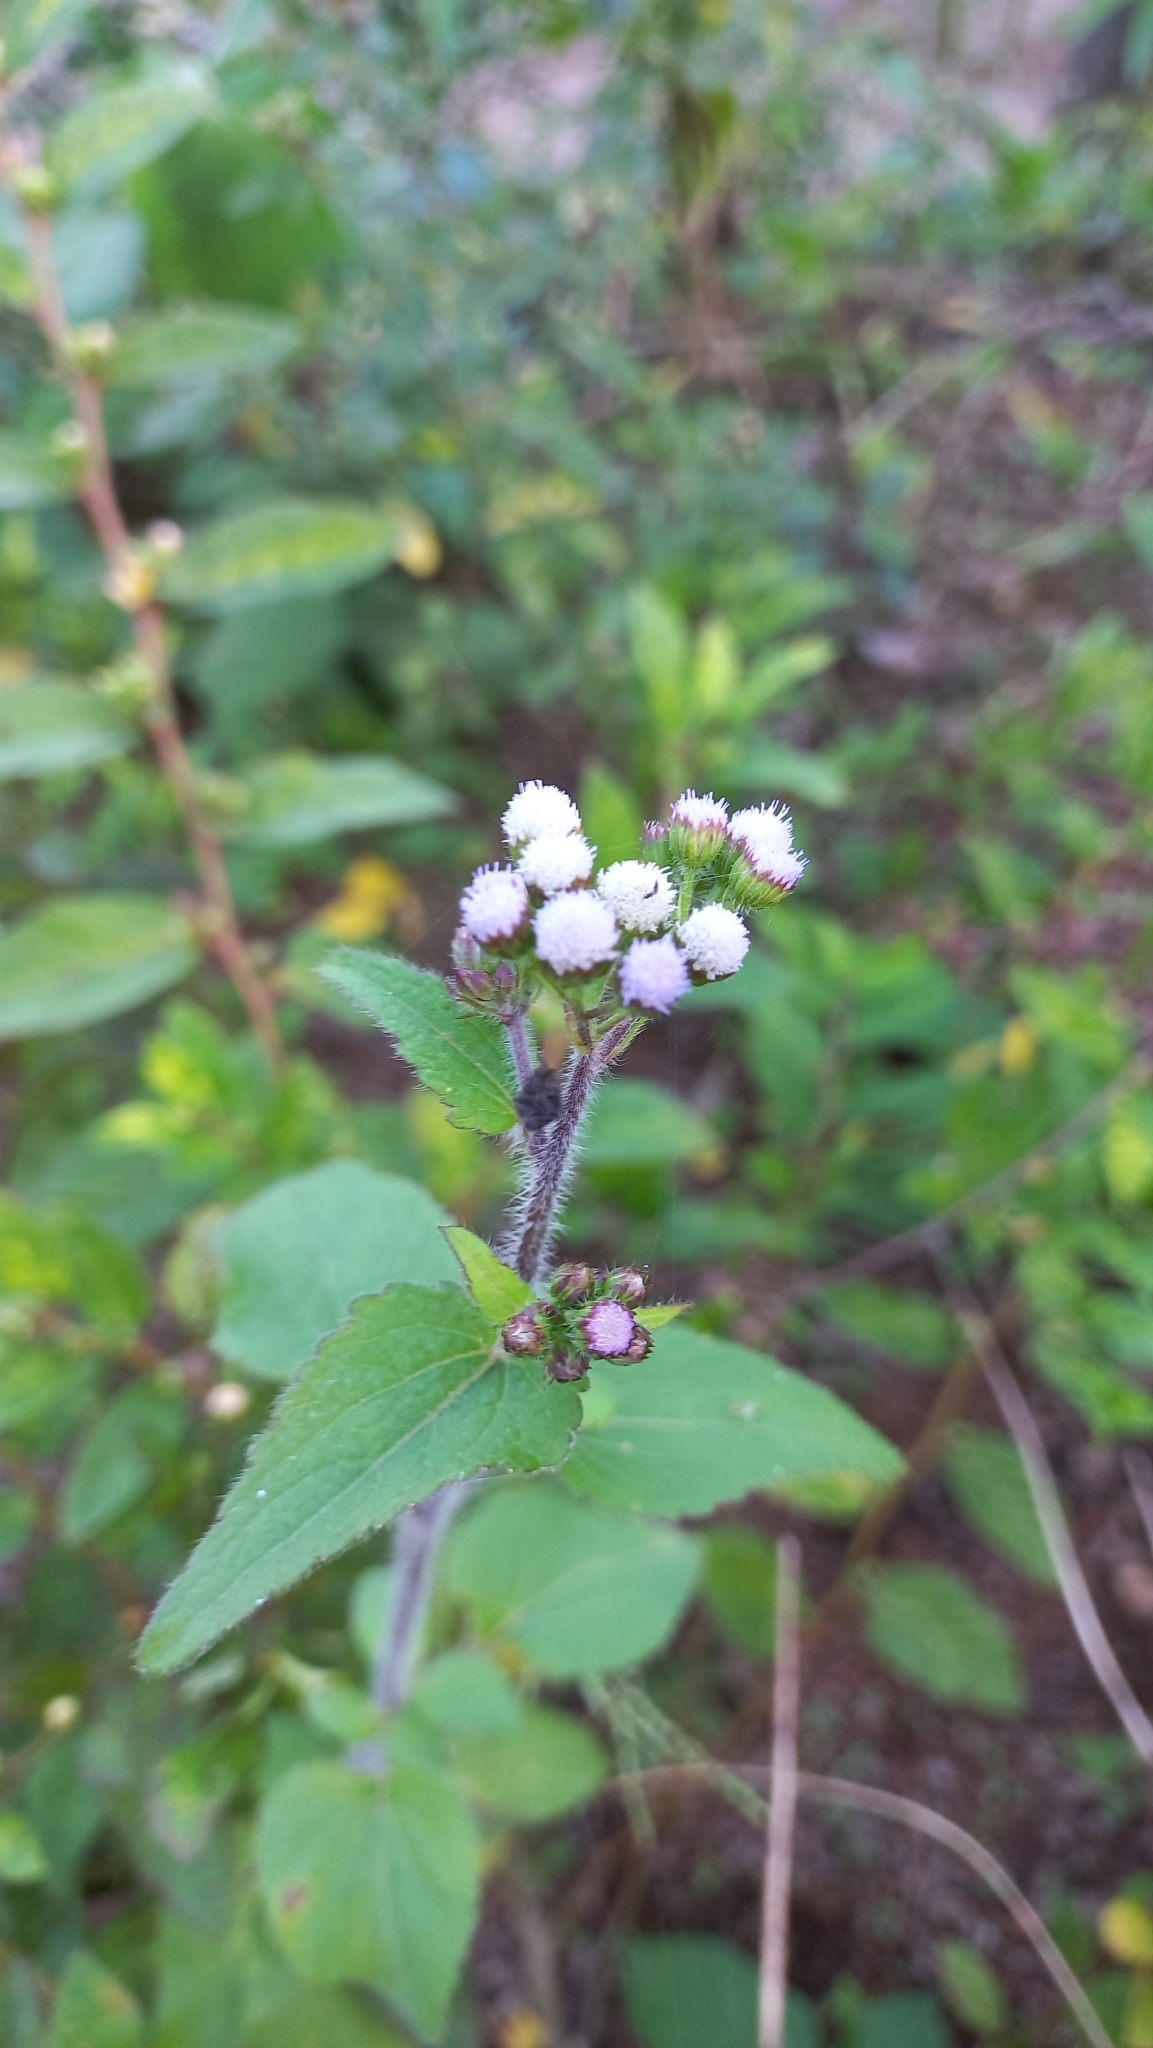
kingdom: Plantae
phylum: Tracheophyta
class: Magnoliopsida
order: Asterales
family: Asteraceae
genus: Ageratum
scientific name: Ageratum conyzoides
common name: Tropical whiteweed
